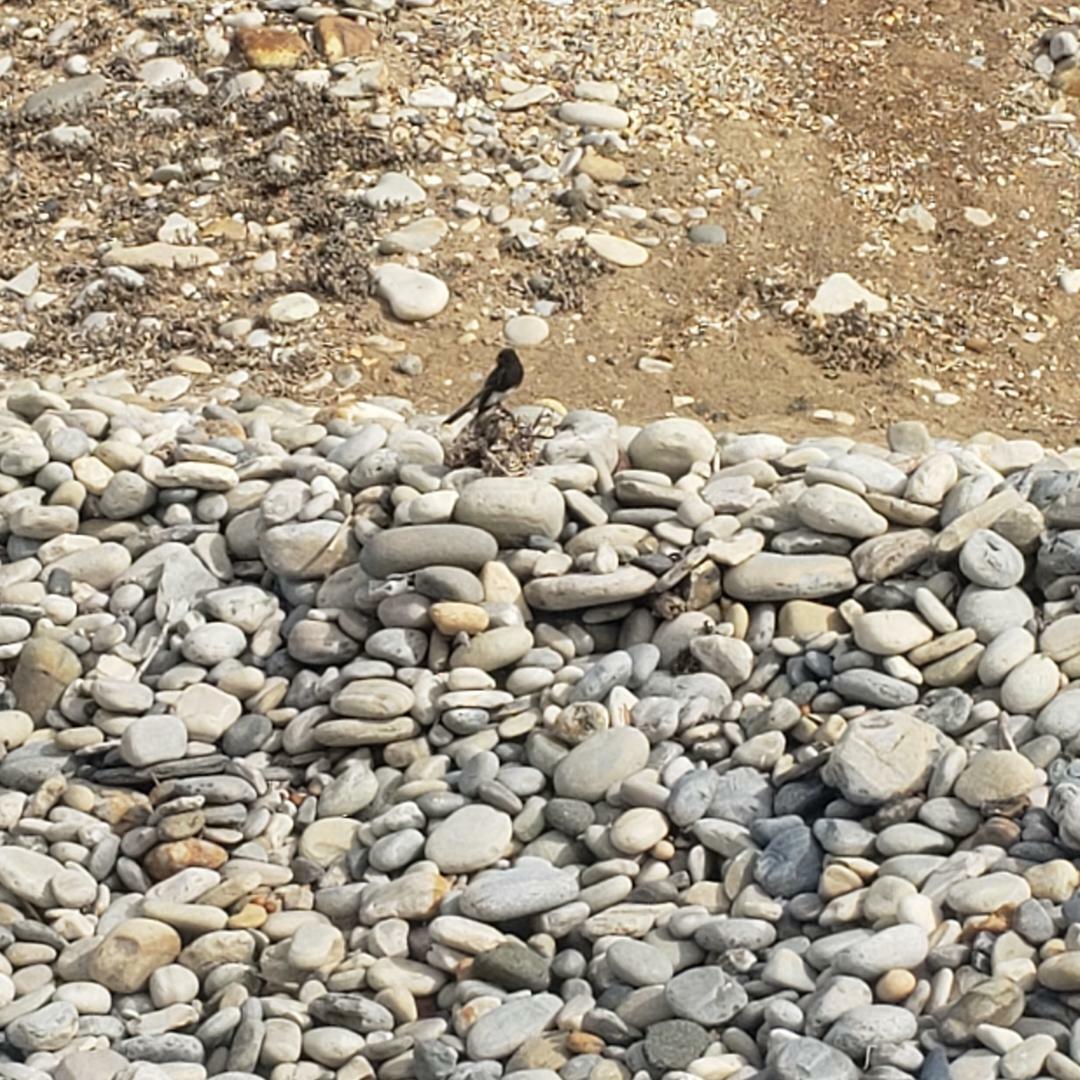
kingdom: Animalia
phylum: Chordata
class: Aves
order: Passeriformes
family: Tyrannidae
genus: Sayornis
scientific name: Sayornis nigricans
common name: Black phoebe
